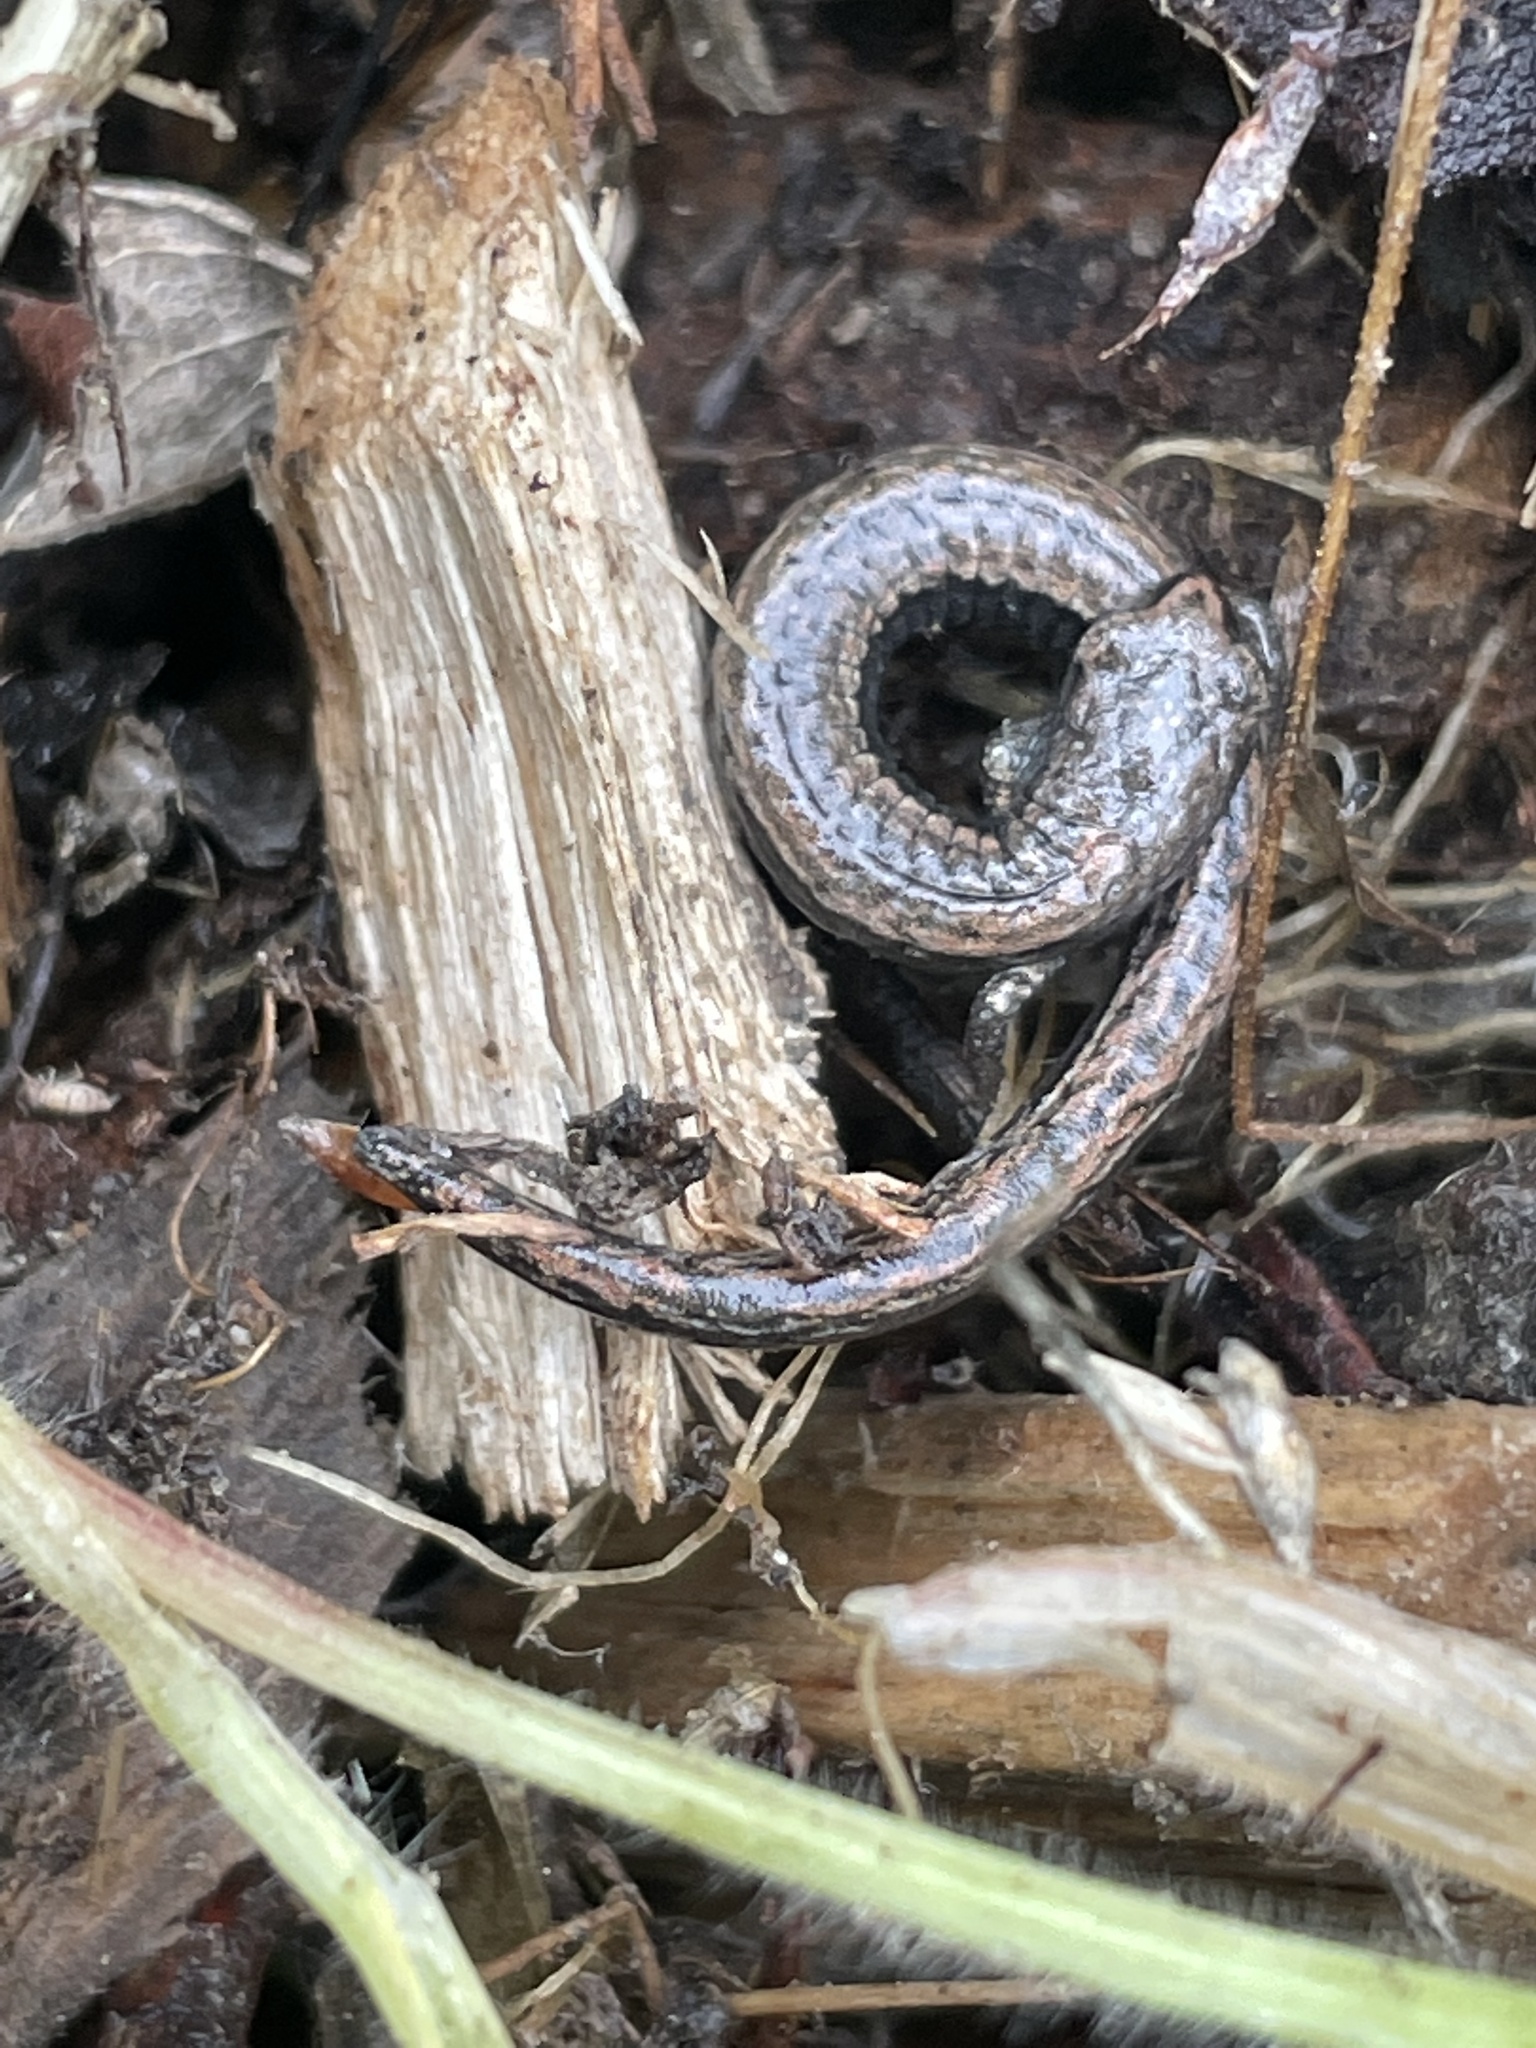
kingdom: Animalia
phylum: Chordata
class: Amphibia
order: Caudata
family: Plethodontidae
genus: Batrachoseps
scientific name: Batrachoseps attenuatus
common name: California slender salamander
